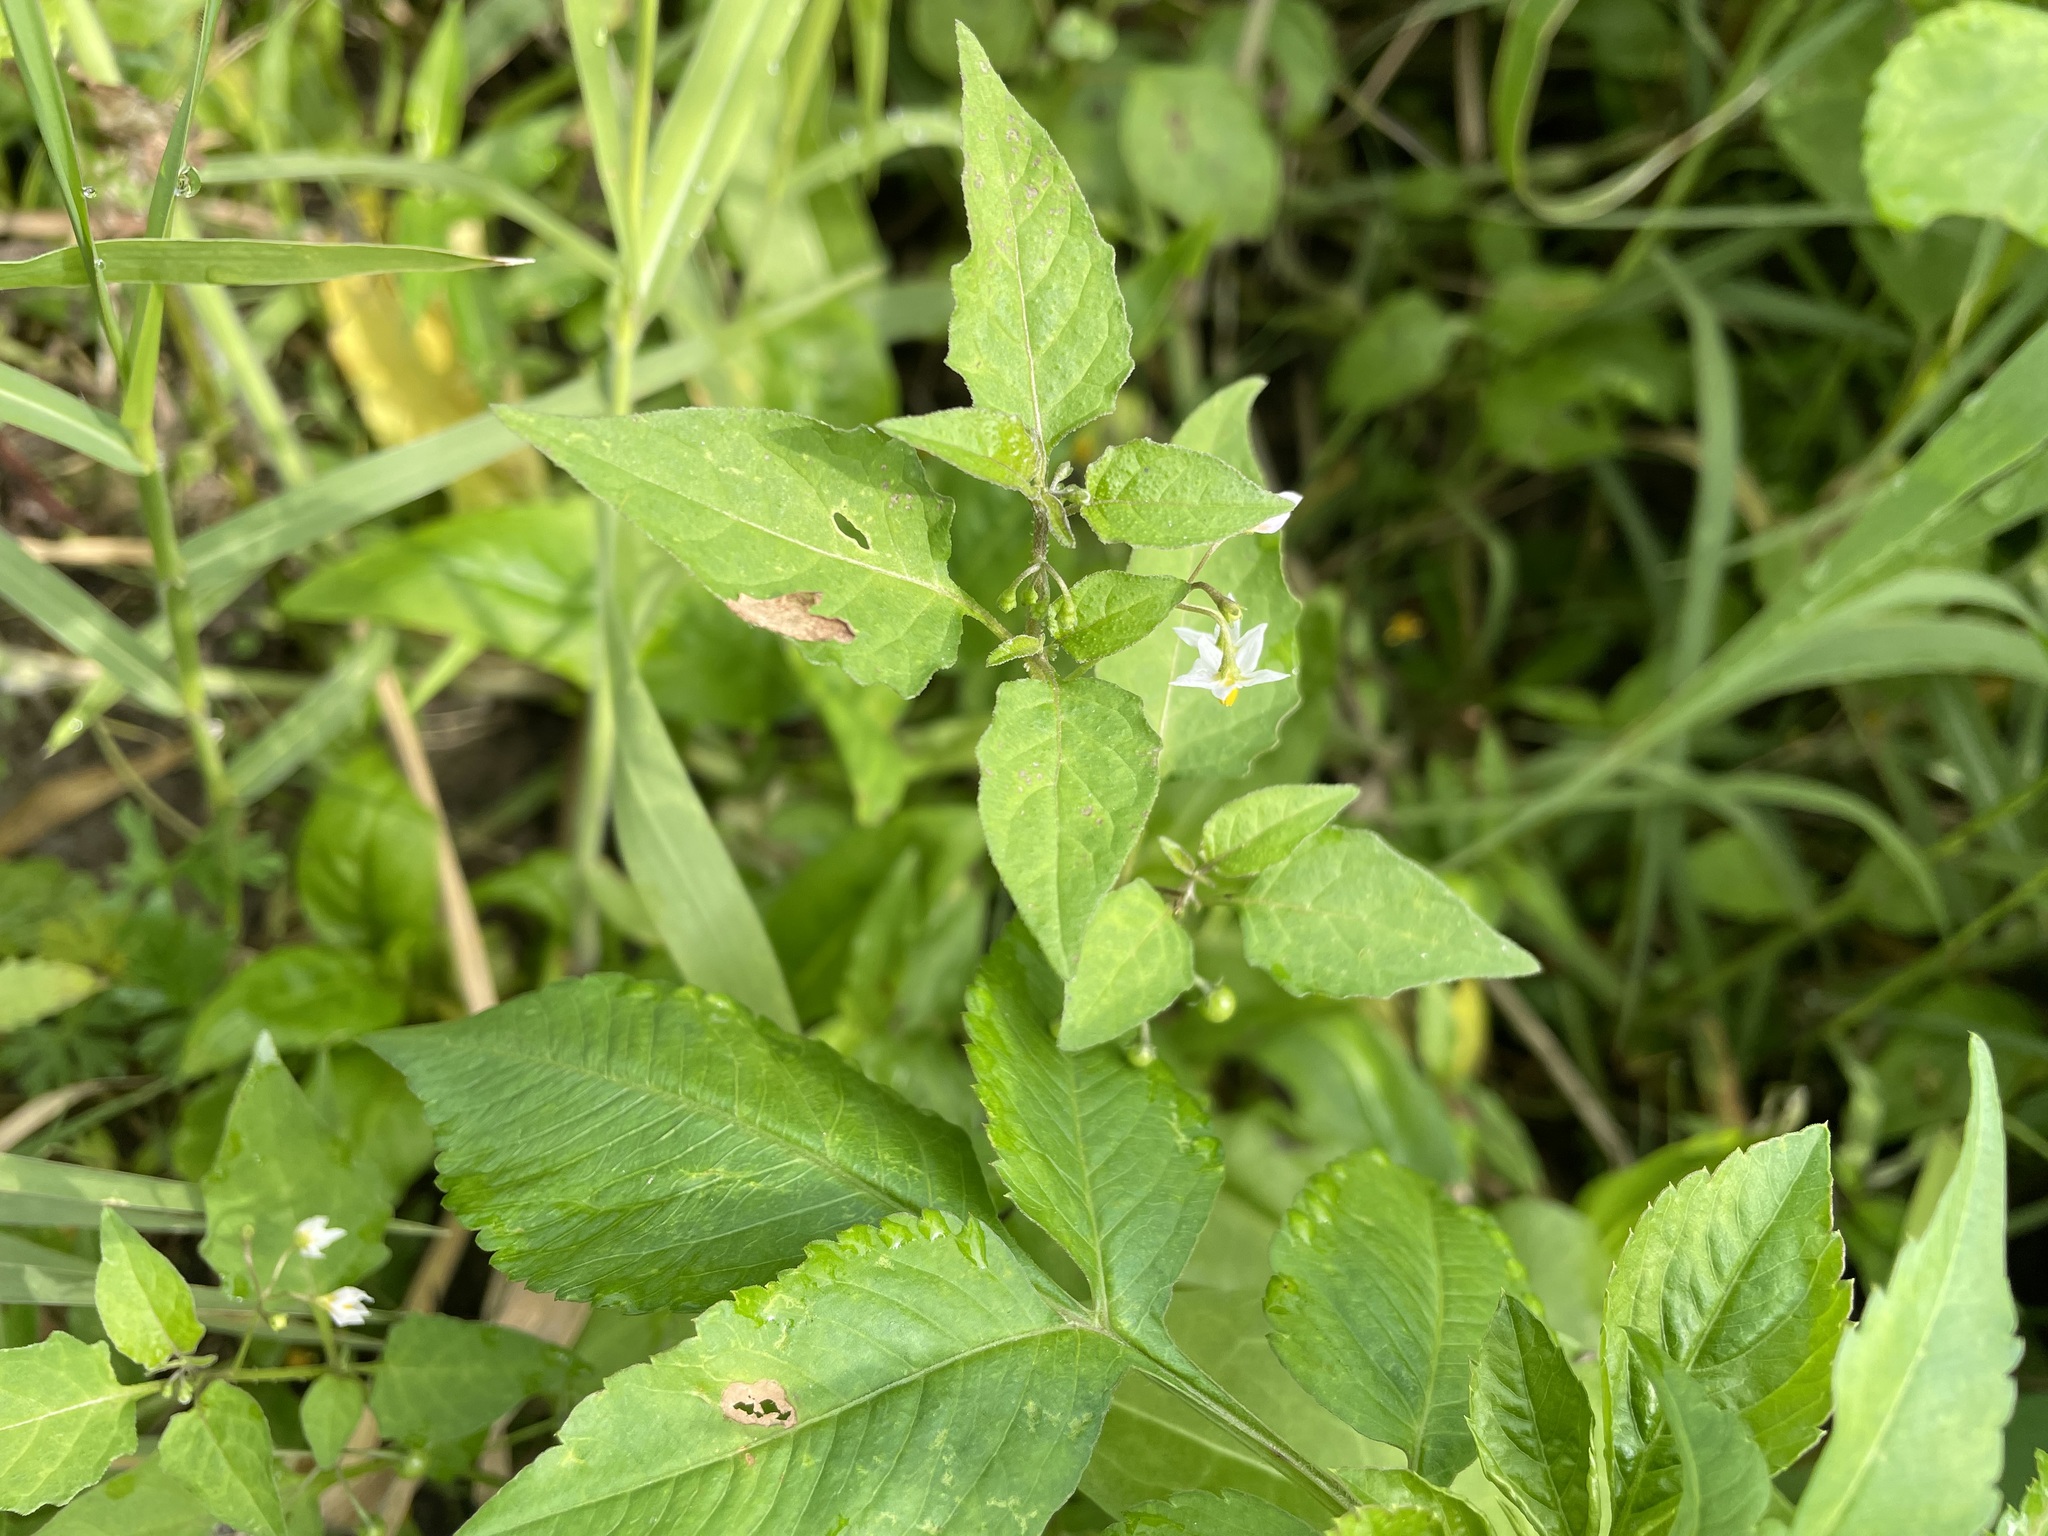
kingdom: Plantae
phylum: Tracheophyta
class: Magnoliopsida
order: Solanales
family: Solanaceae
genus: Solanum
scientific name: Solanum americanum
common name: American black nightshade
